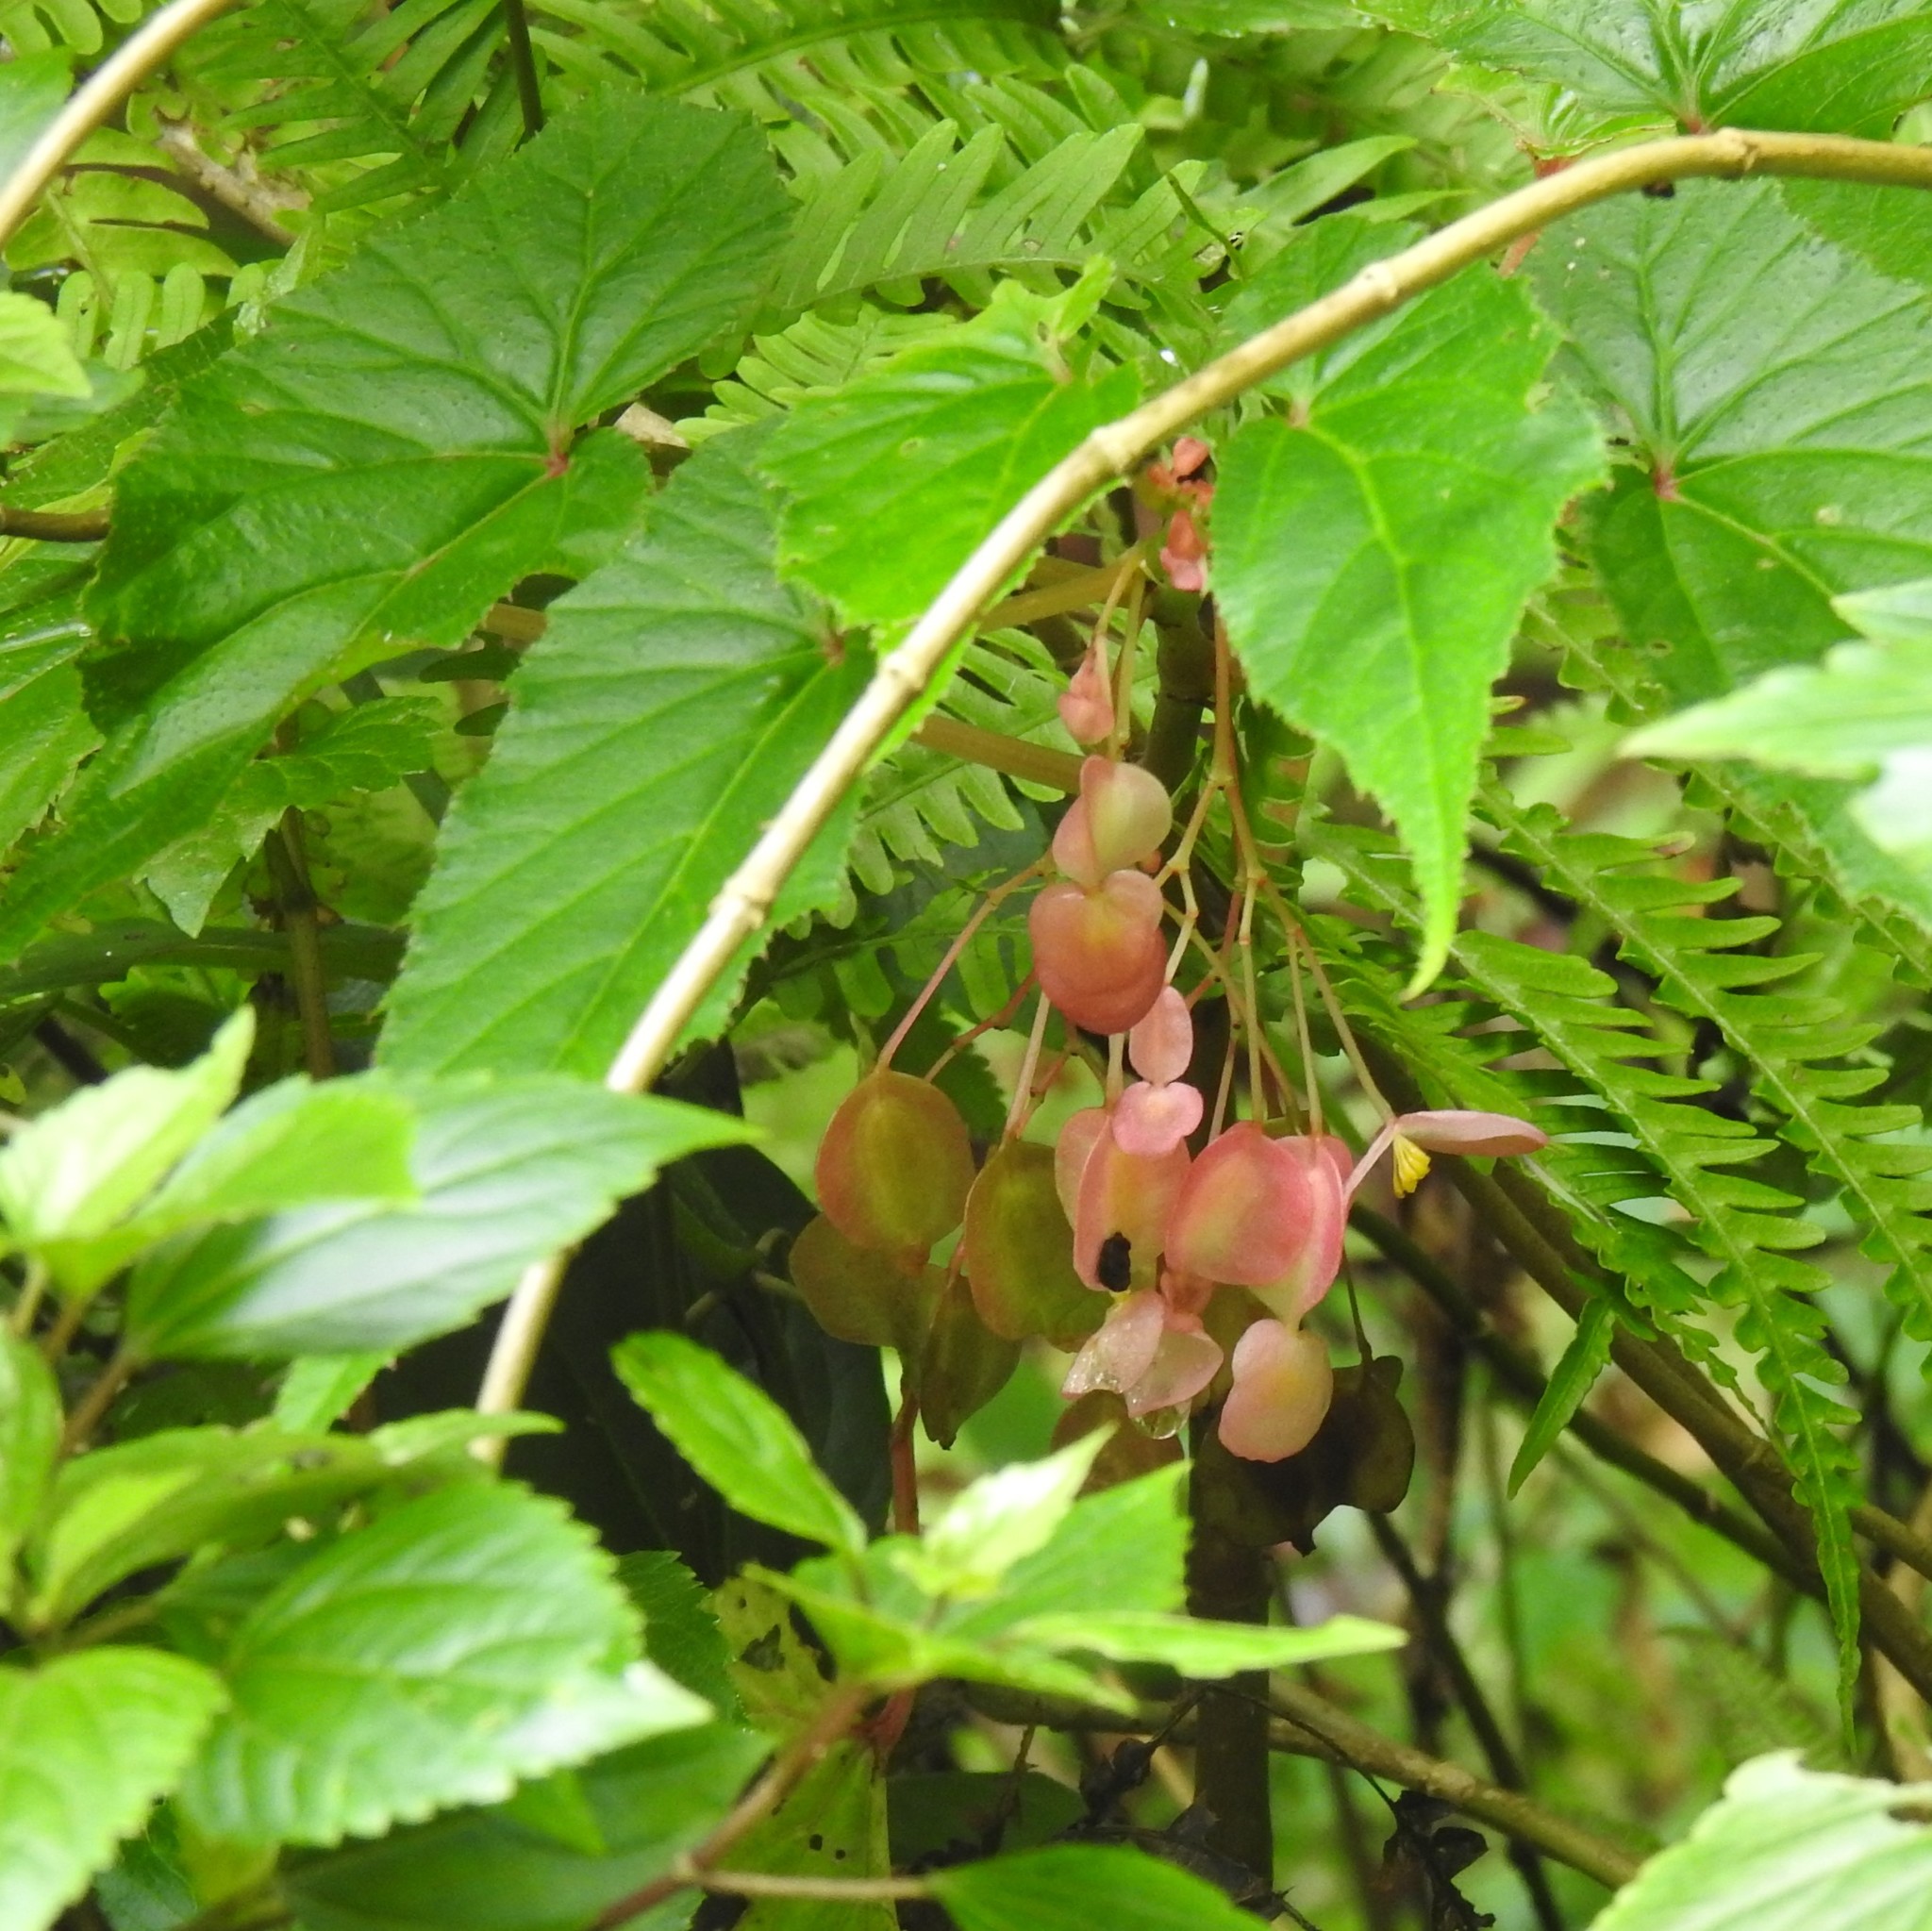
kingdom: Plantae
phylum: Tracheophyta
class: Magnoliopsida
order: Cucurbitales
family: Begoniaceae
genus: Begonia
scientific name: Begonia dipetala
